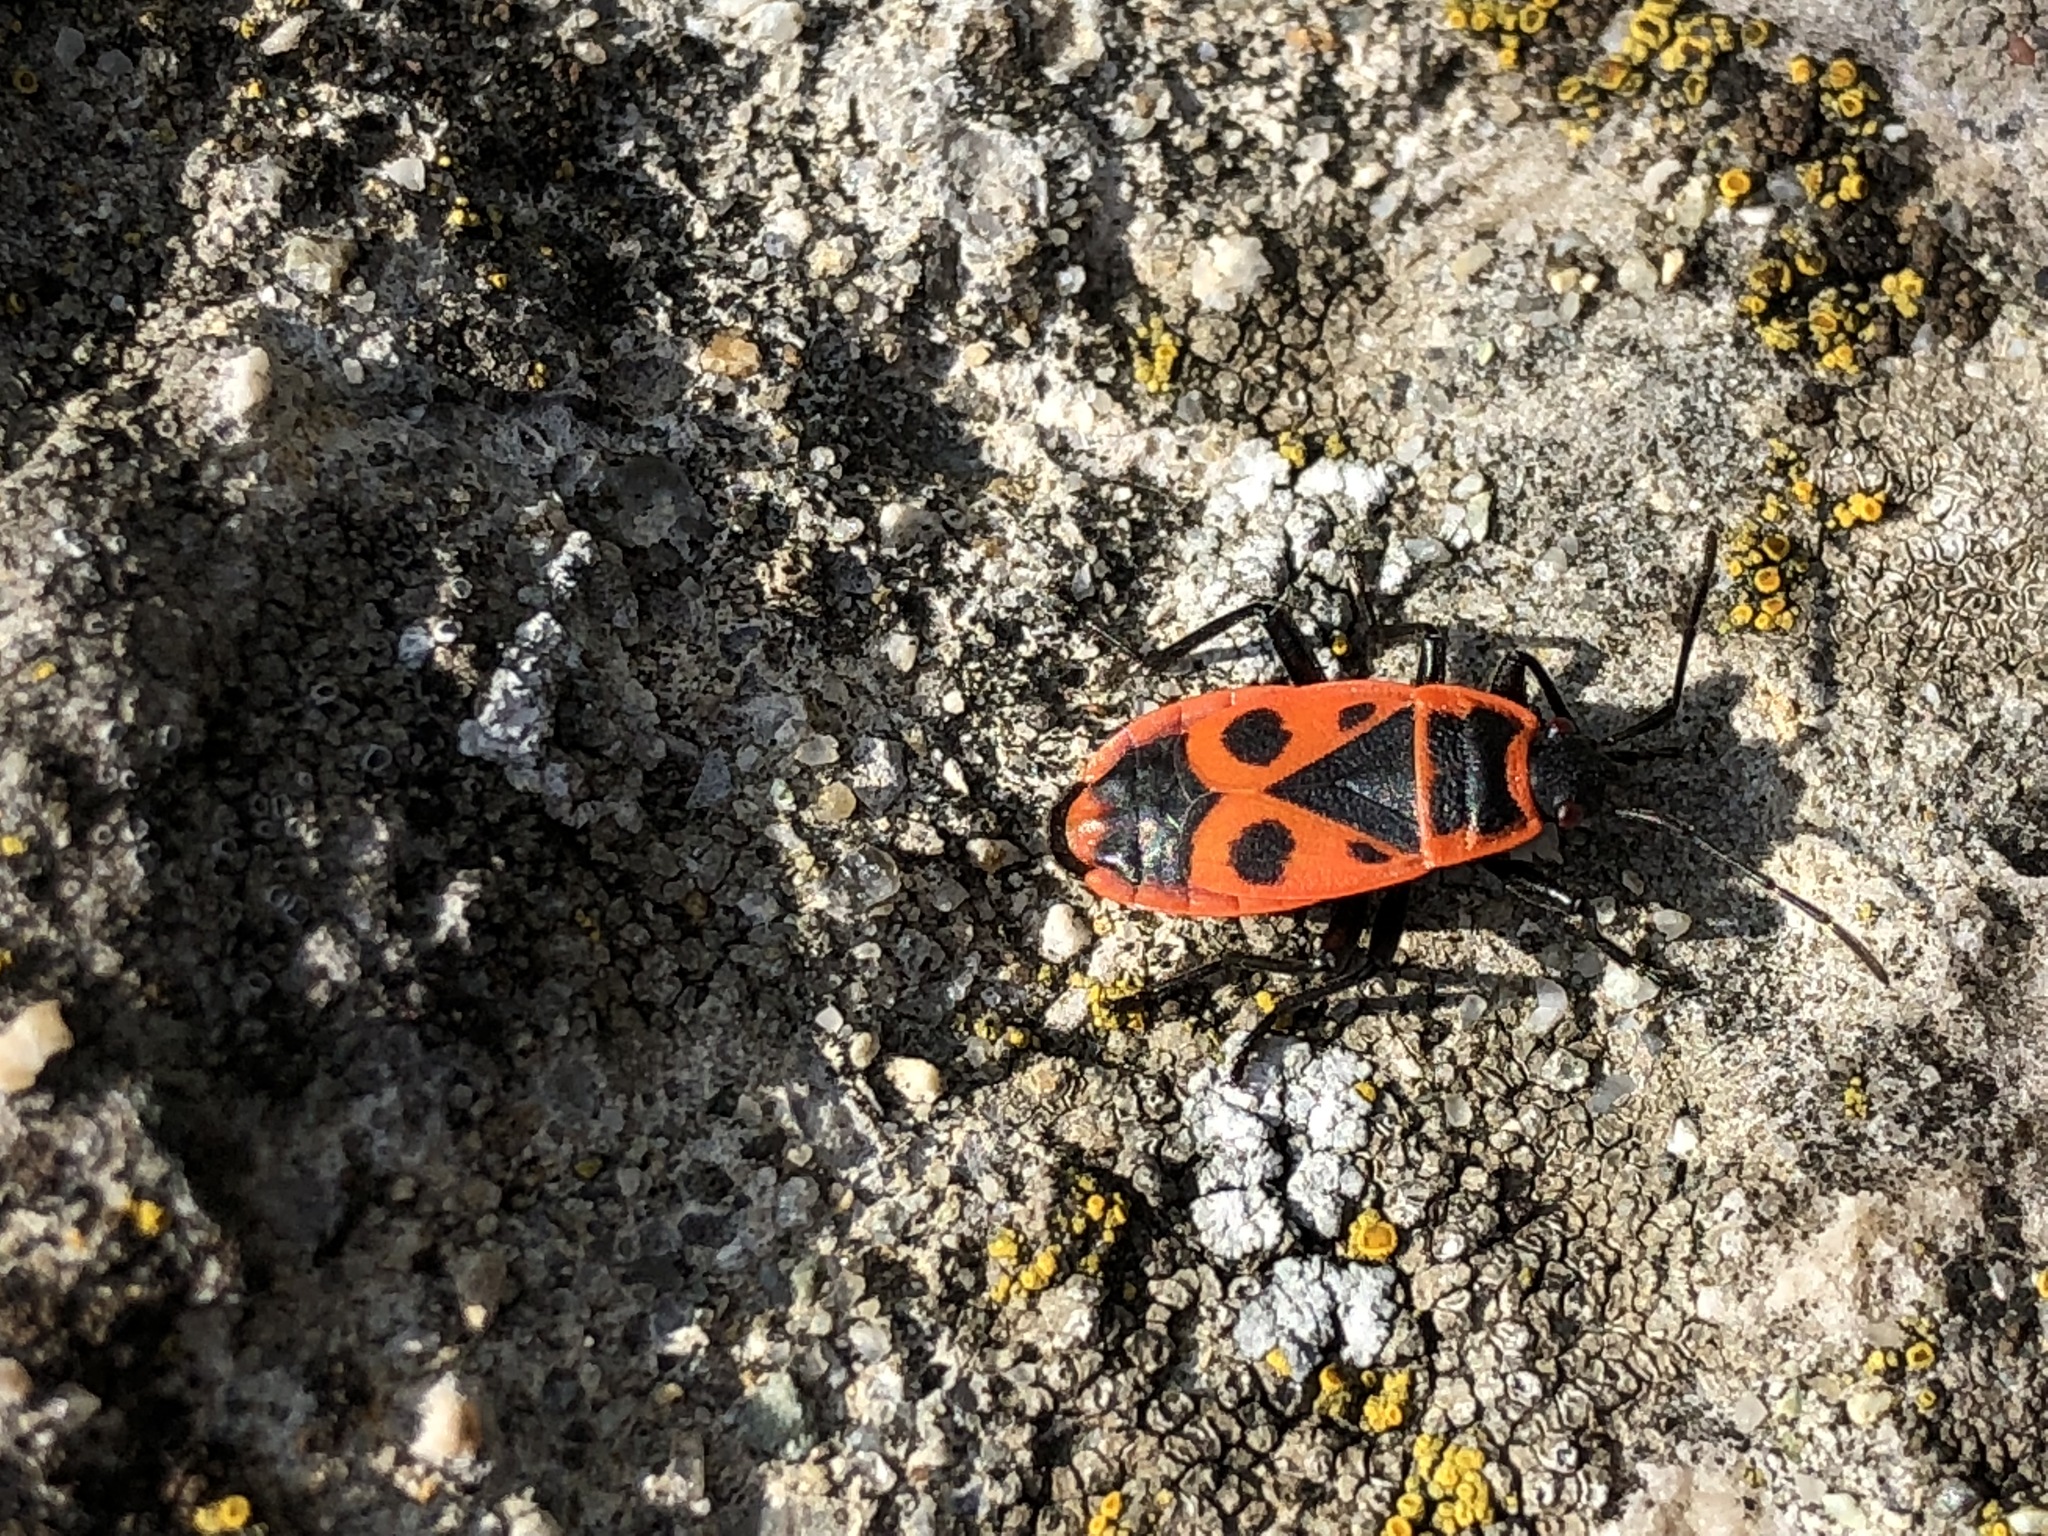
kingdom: Animalia
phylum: Arthropoda
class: Insecta
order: Hemiptera
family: Pyrrhocoridae
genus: Pyrrhocoris
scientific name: Pyrrhocoris apterus
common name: Firebug
